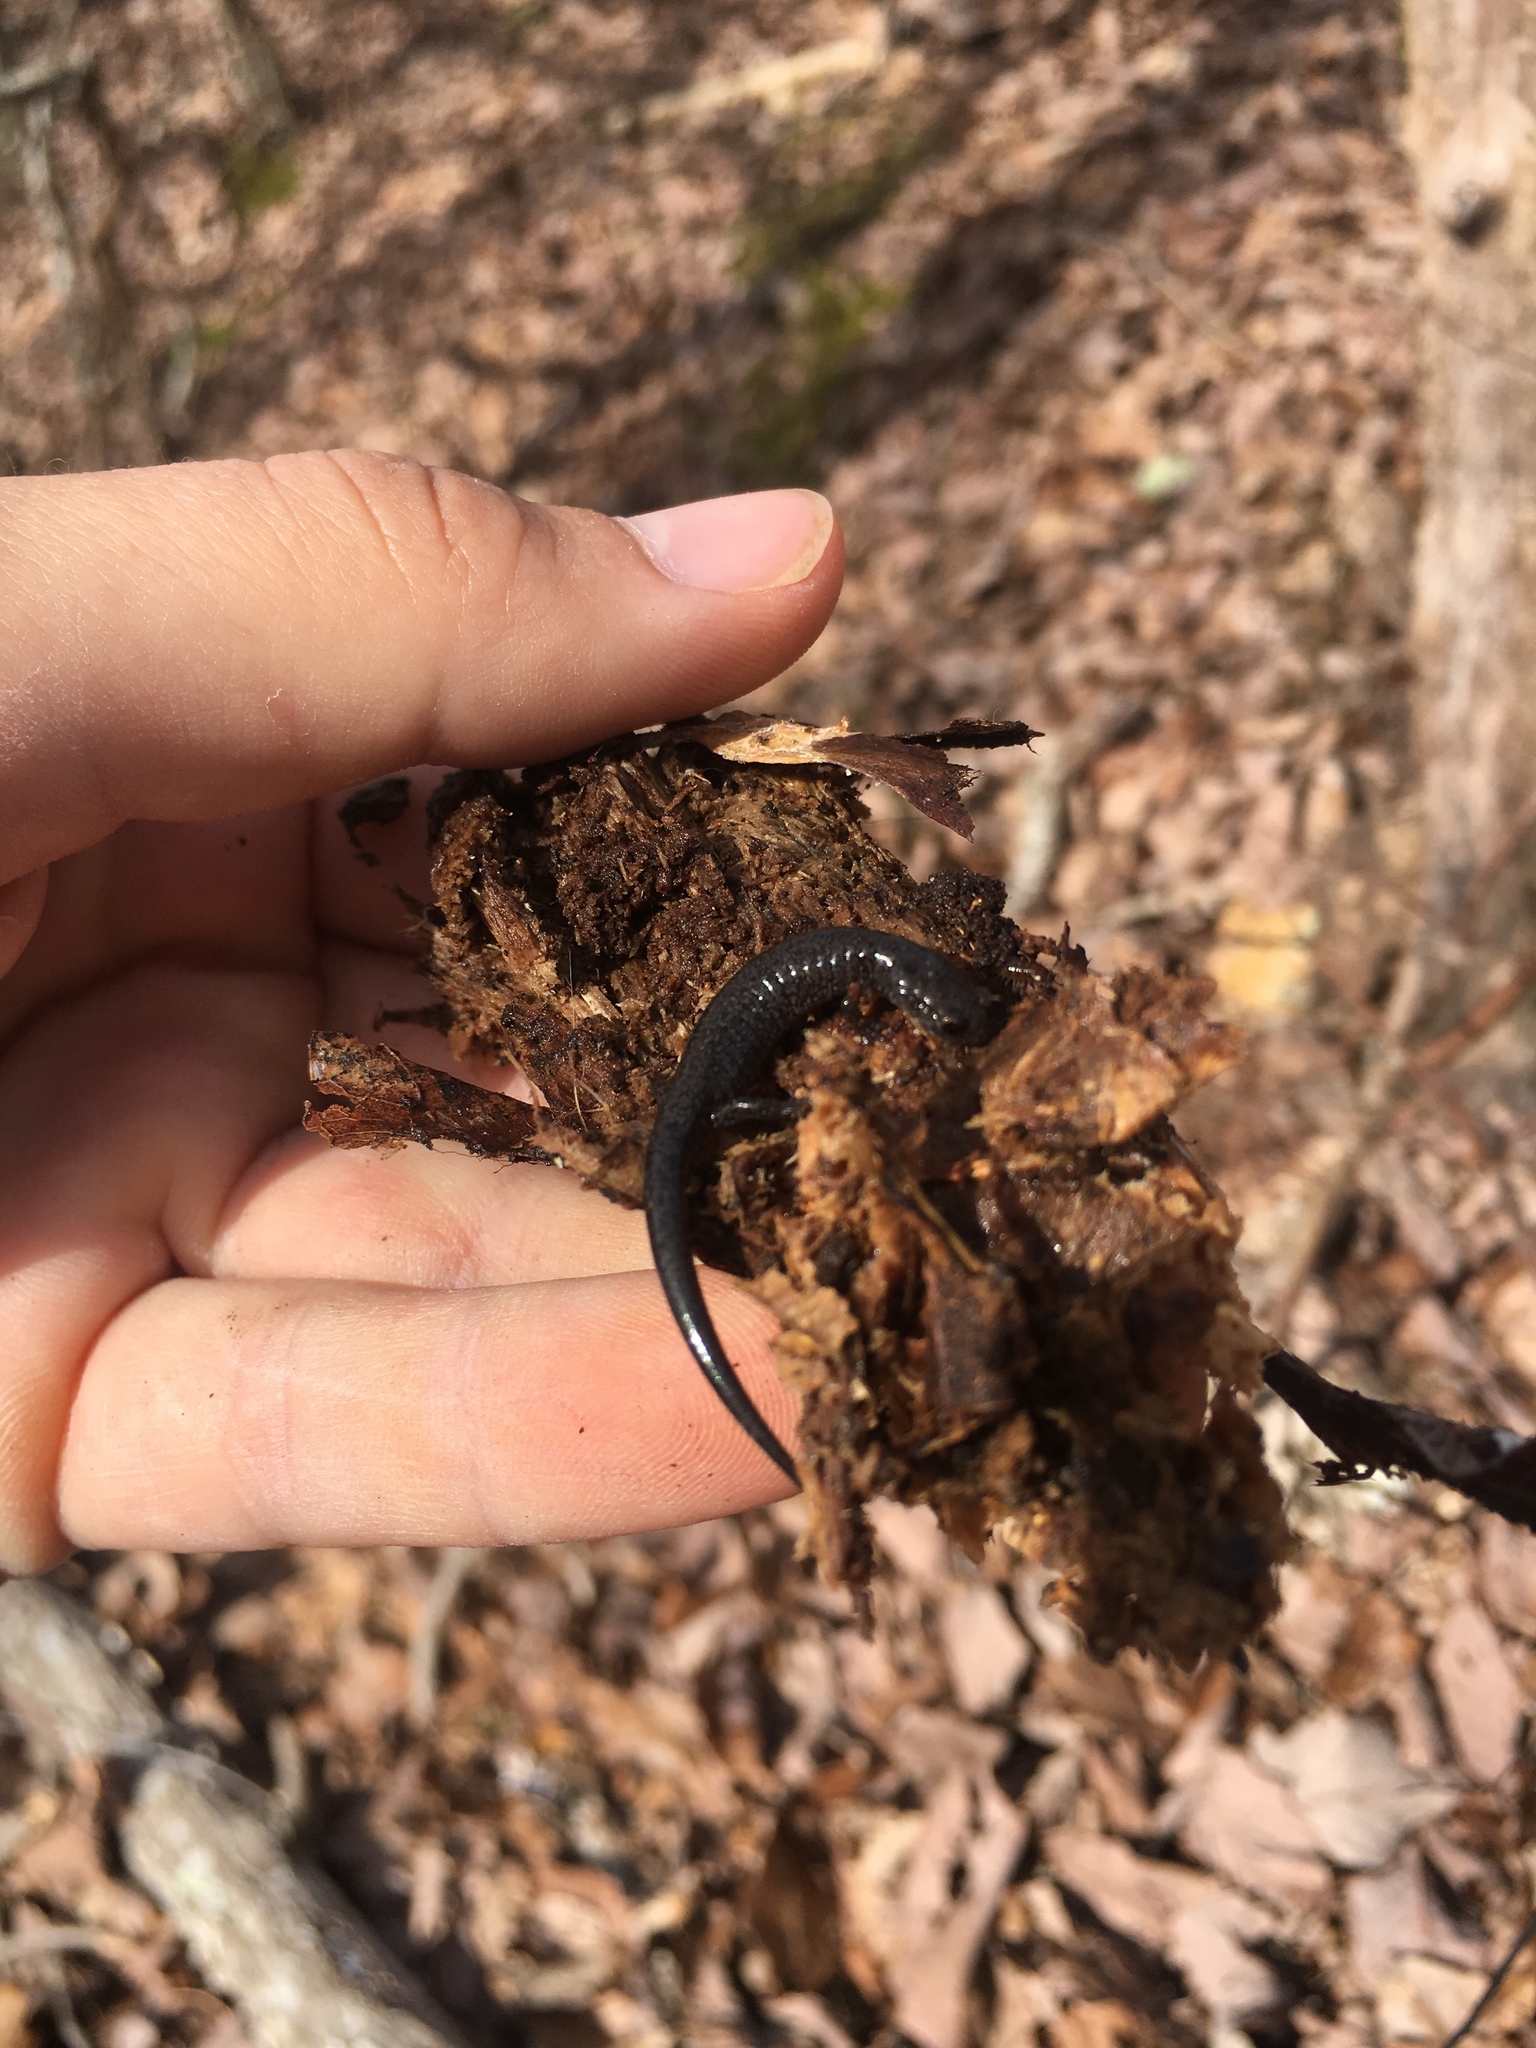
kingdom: Animalia
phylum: Chordata
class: Amphibia
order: Caudata
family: Plethodontidae
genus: Plethodon
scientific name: Plethodon dorsalis
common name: Northern zigzag salamander
